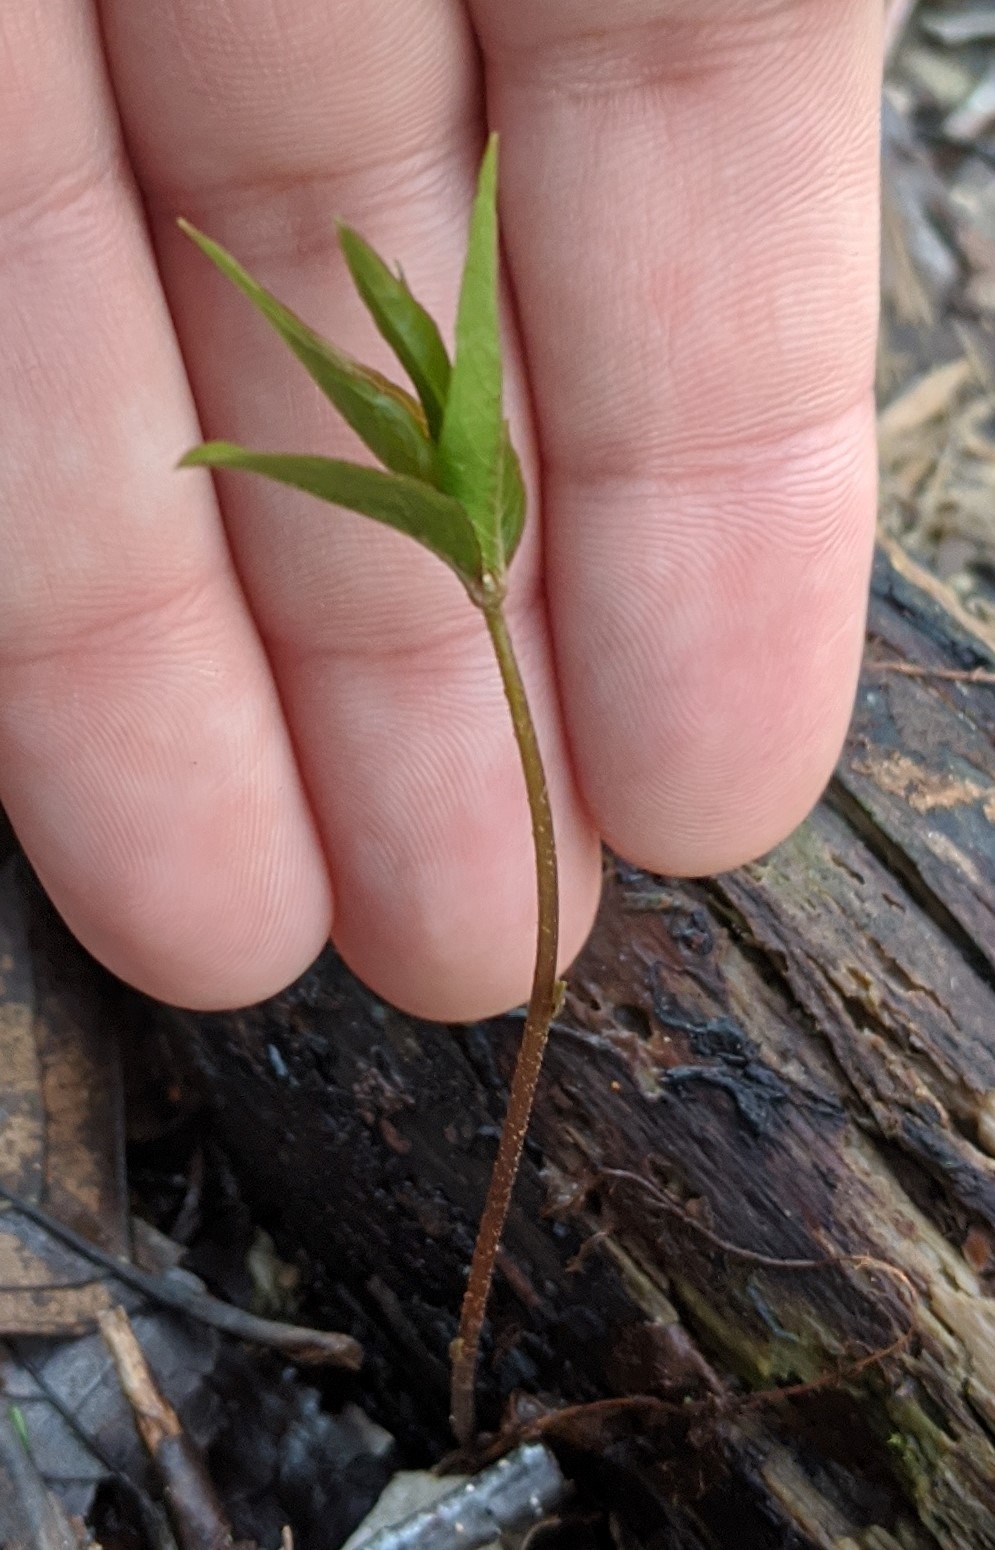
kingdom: Plantae
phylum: Tracheophyta
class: Magnoliopsida
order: Ericales
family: Primulaceae
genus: Lysimachia
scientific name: Lysimachia borealis
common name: American starflower
